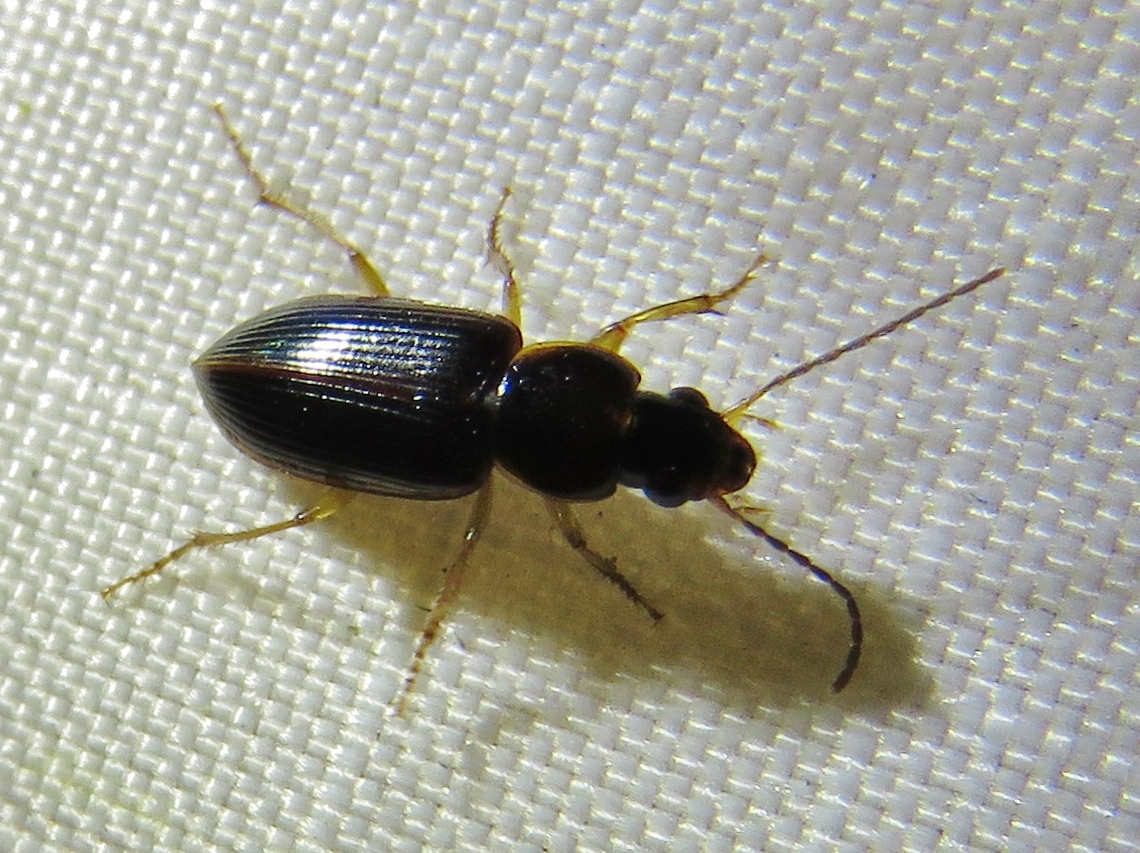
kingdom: Animalia
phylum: Arthropoda
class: Insecta
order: Coleoptera
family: Carabidae
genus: Stenolophus
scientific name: Stenolophus ochropezus
